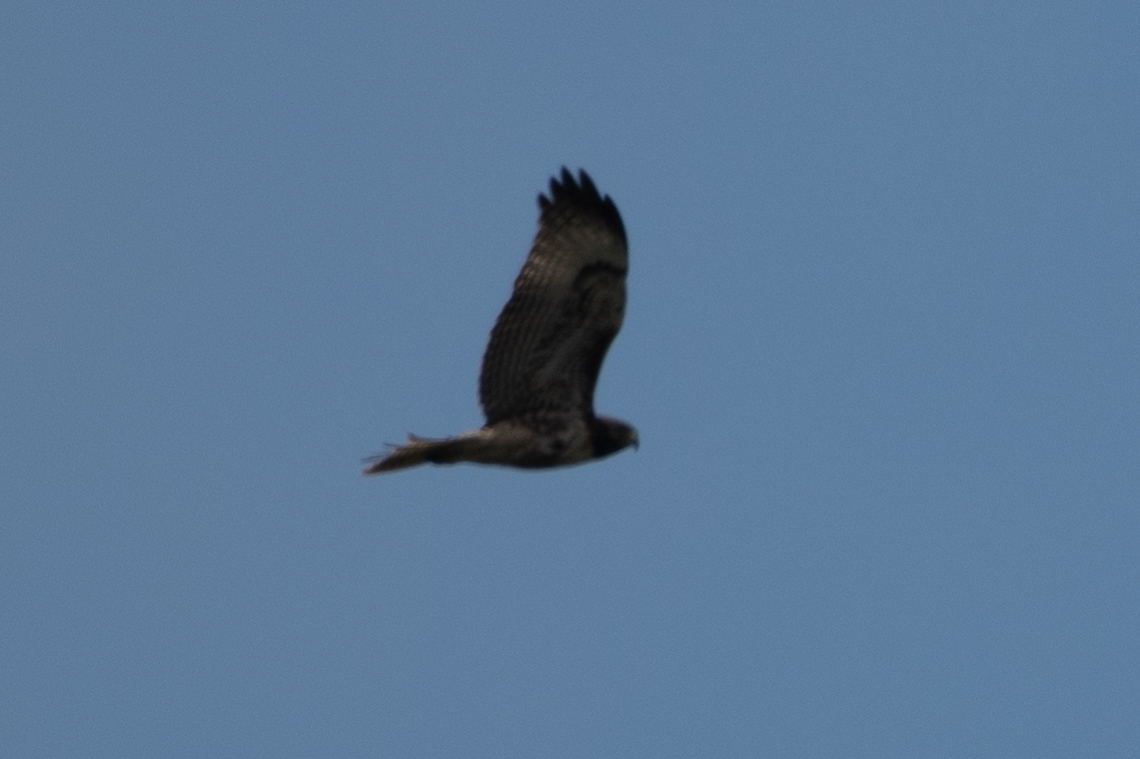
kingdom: Animalia
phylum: Chordata
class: Aves
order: Accipitriformes
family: Accipitridae
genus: Buteo
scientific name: Buteo jamaicensis
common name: Red-tailed hawk
